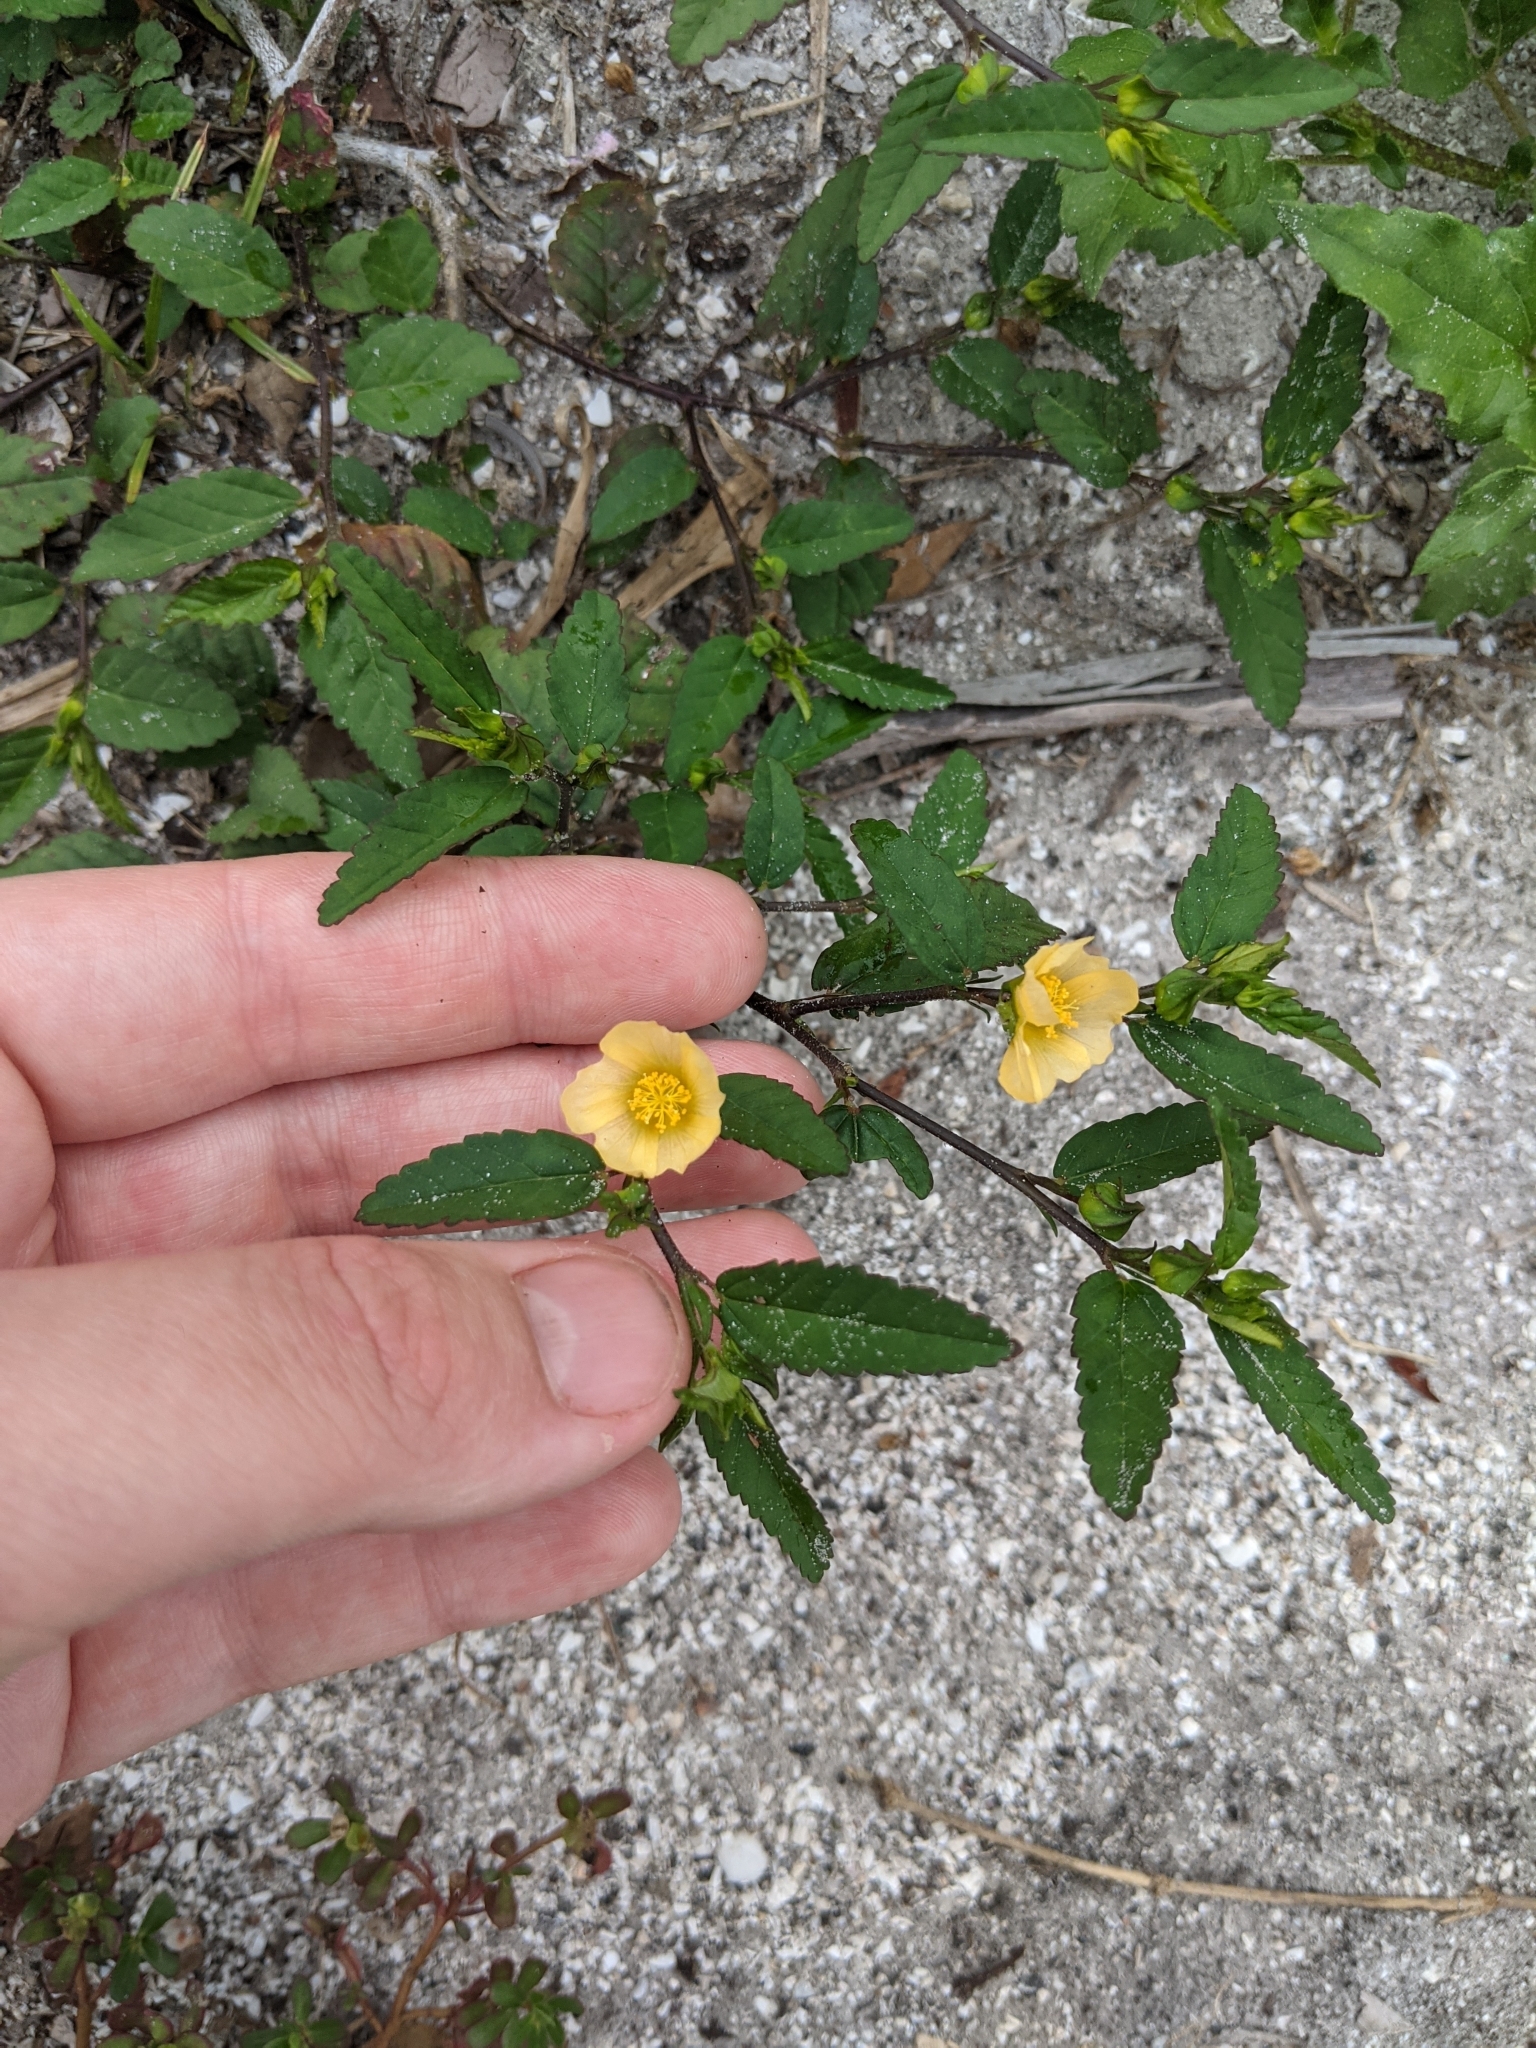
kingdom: Plantae
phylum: Tracheophyta
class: Magnoliopsida
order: Malvales
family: Malvaceae
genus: Sida
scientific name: Sida ulmifolia
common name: Broom weed
